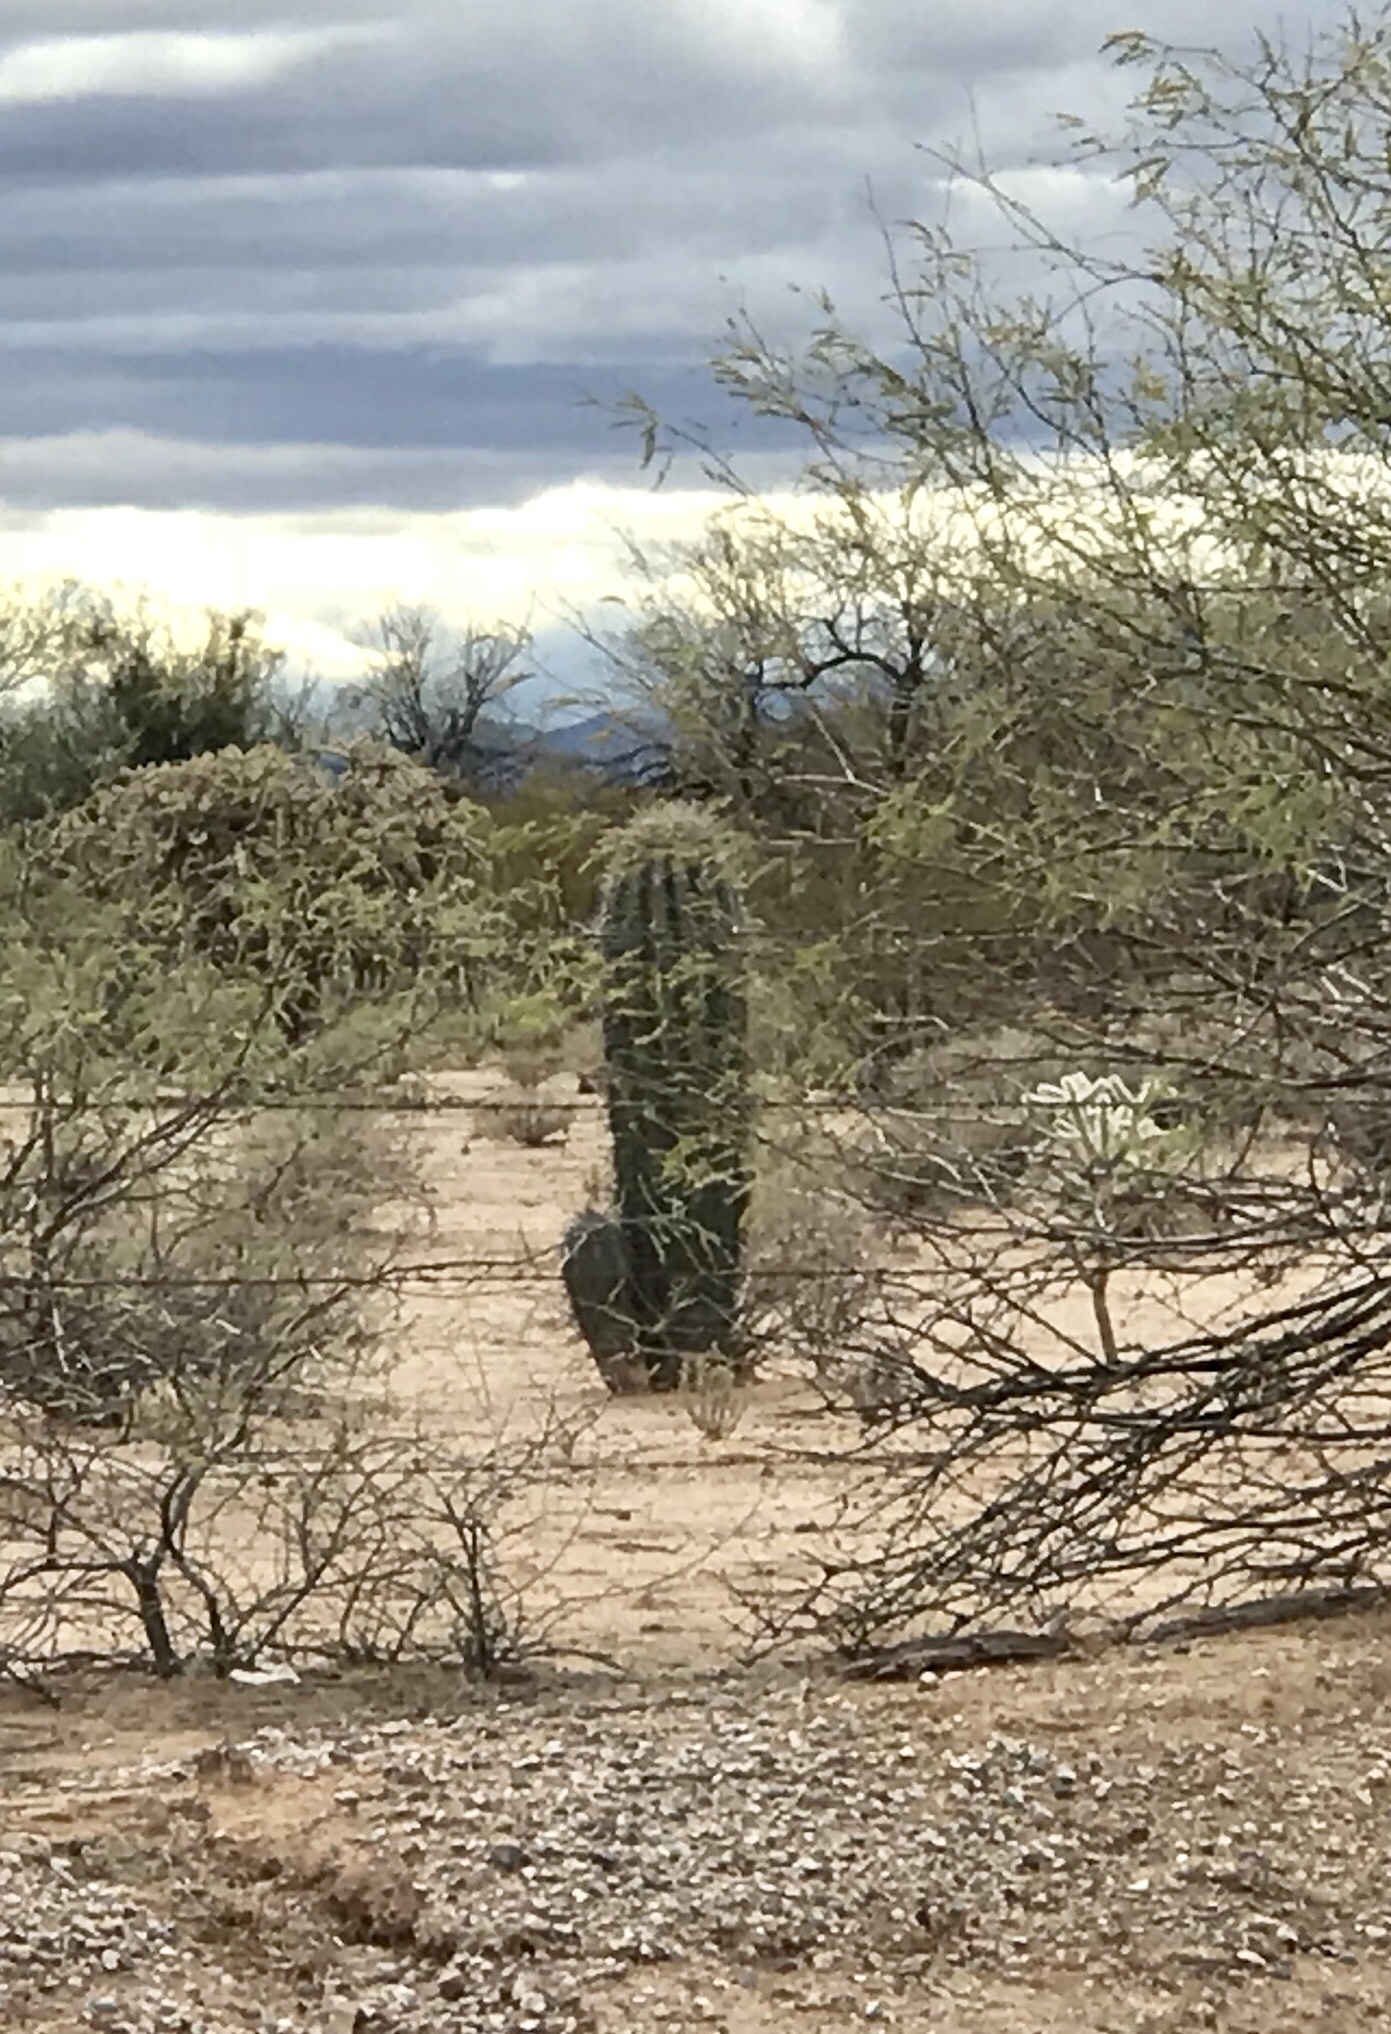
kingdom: Plantae
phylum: Tracheophyta
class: Magnoliopsida
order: Caryophyllales
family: Cactaceae
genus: Carnegiea
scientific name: Carnegiea gigantea
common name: Saguaro
